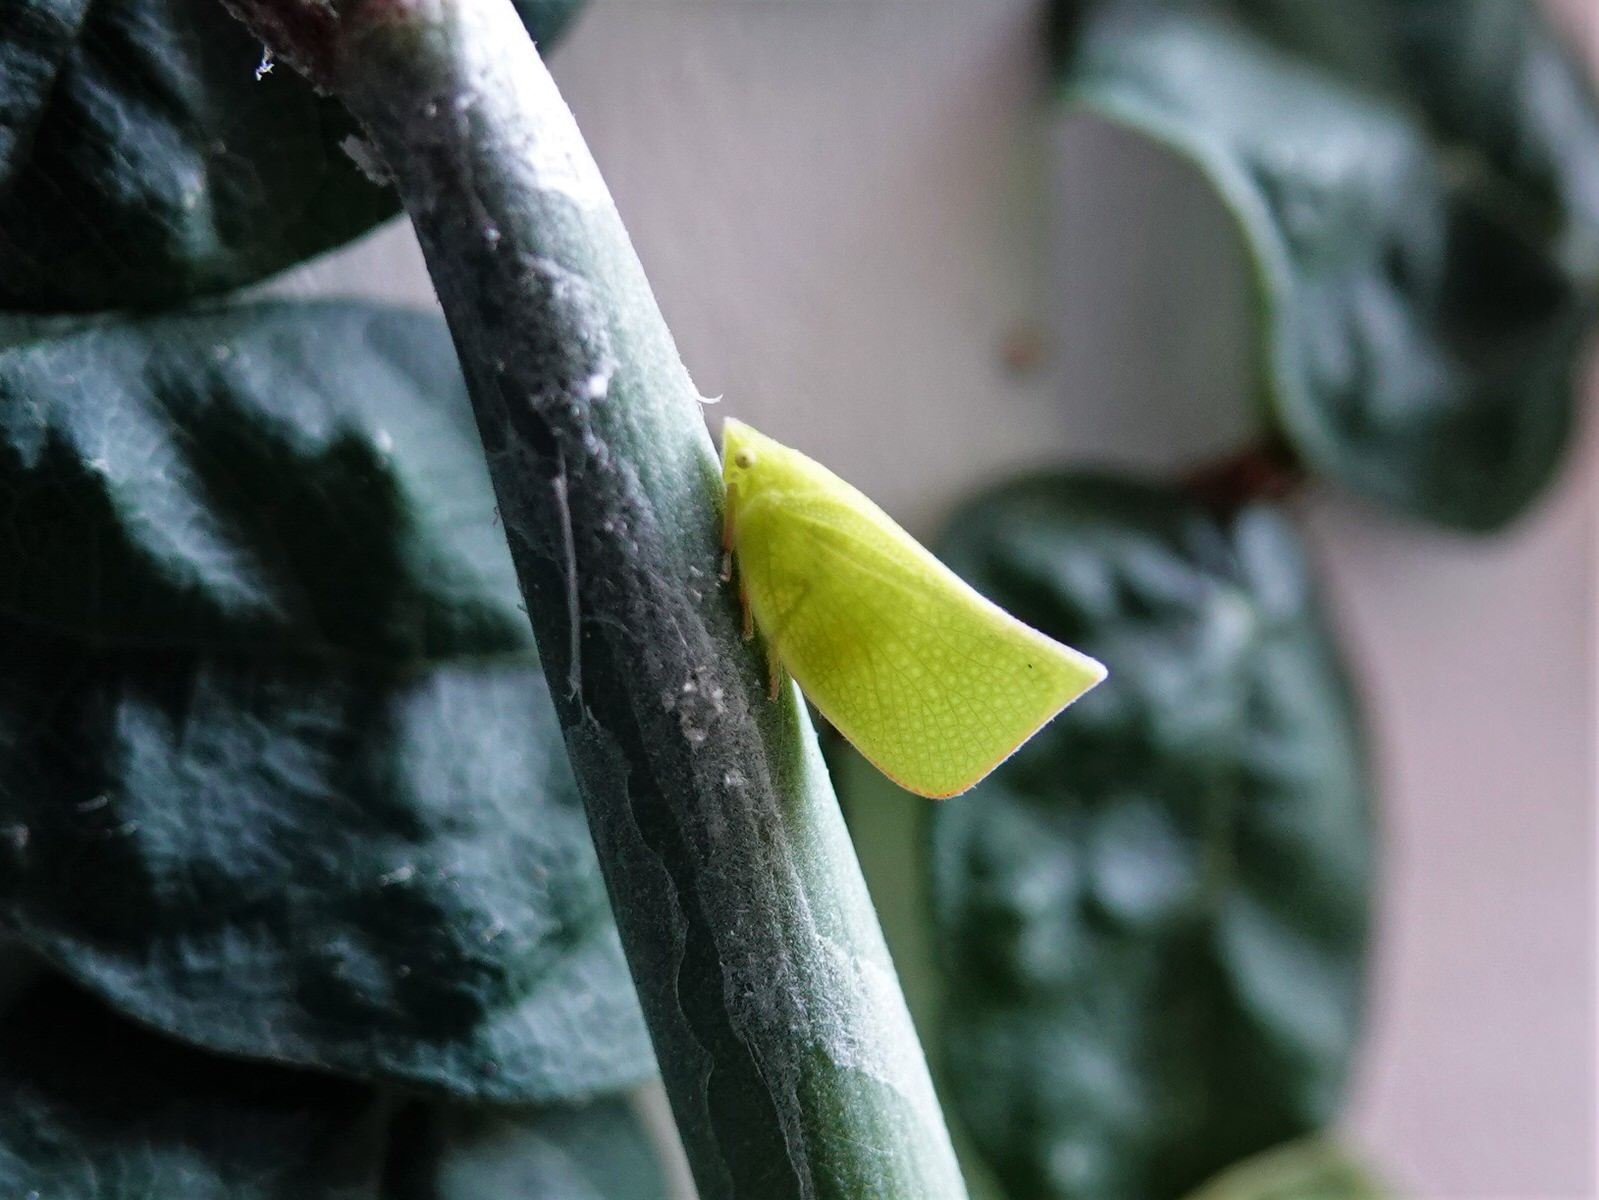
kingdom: Animalia
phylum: Arthropoda
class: Insecta
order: Hemiptera
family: Flatidae
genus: Siphanta
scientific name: Siphanta acuta
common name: Torpedo bug
